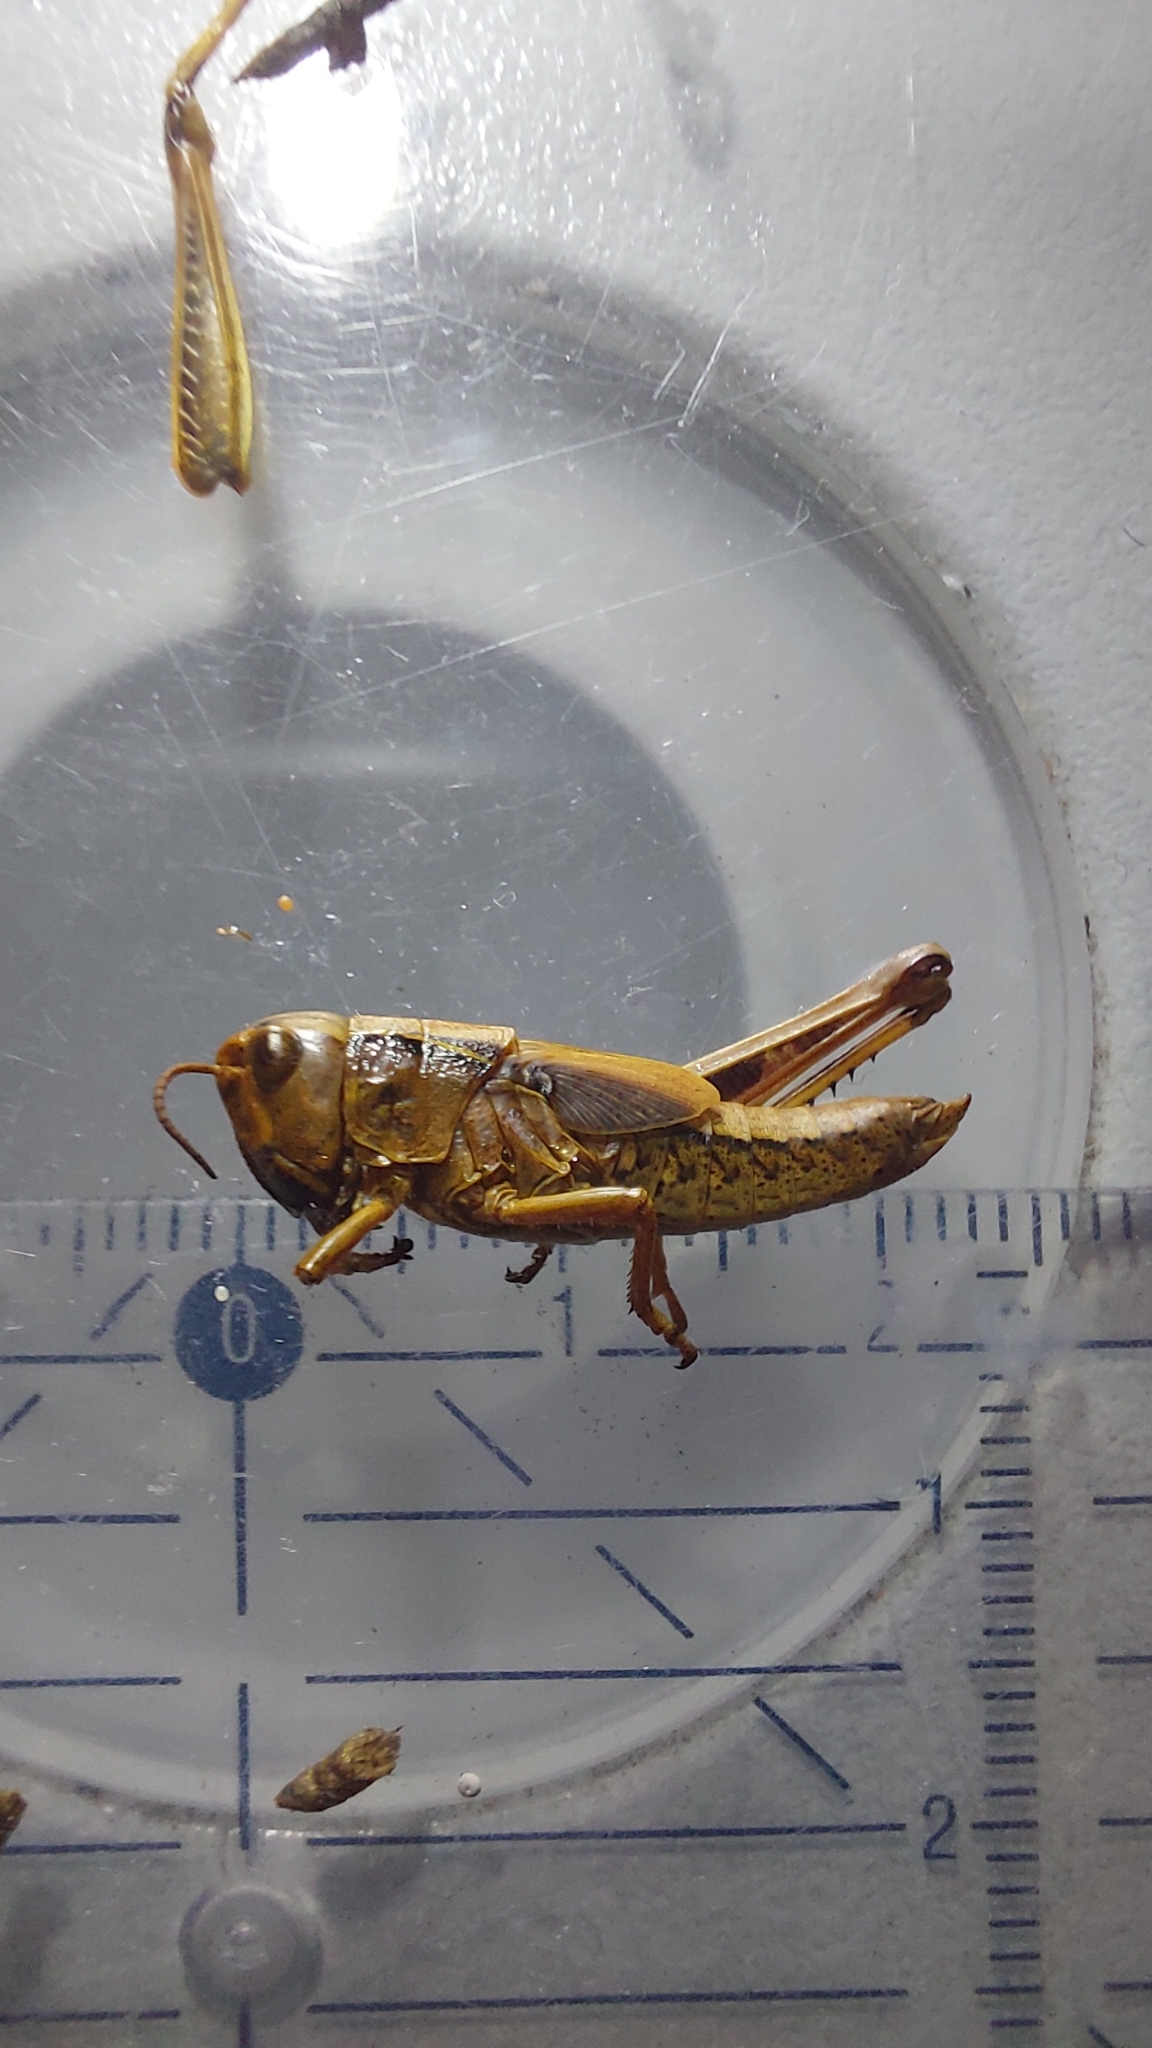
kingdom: Animalia
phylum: Arthropoda
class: Insecta
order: Orthoptera
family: Acrididae
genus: Stethophyma
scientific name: Stethophyma grossum
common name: Large marsh grasshopper
